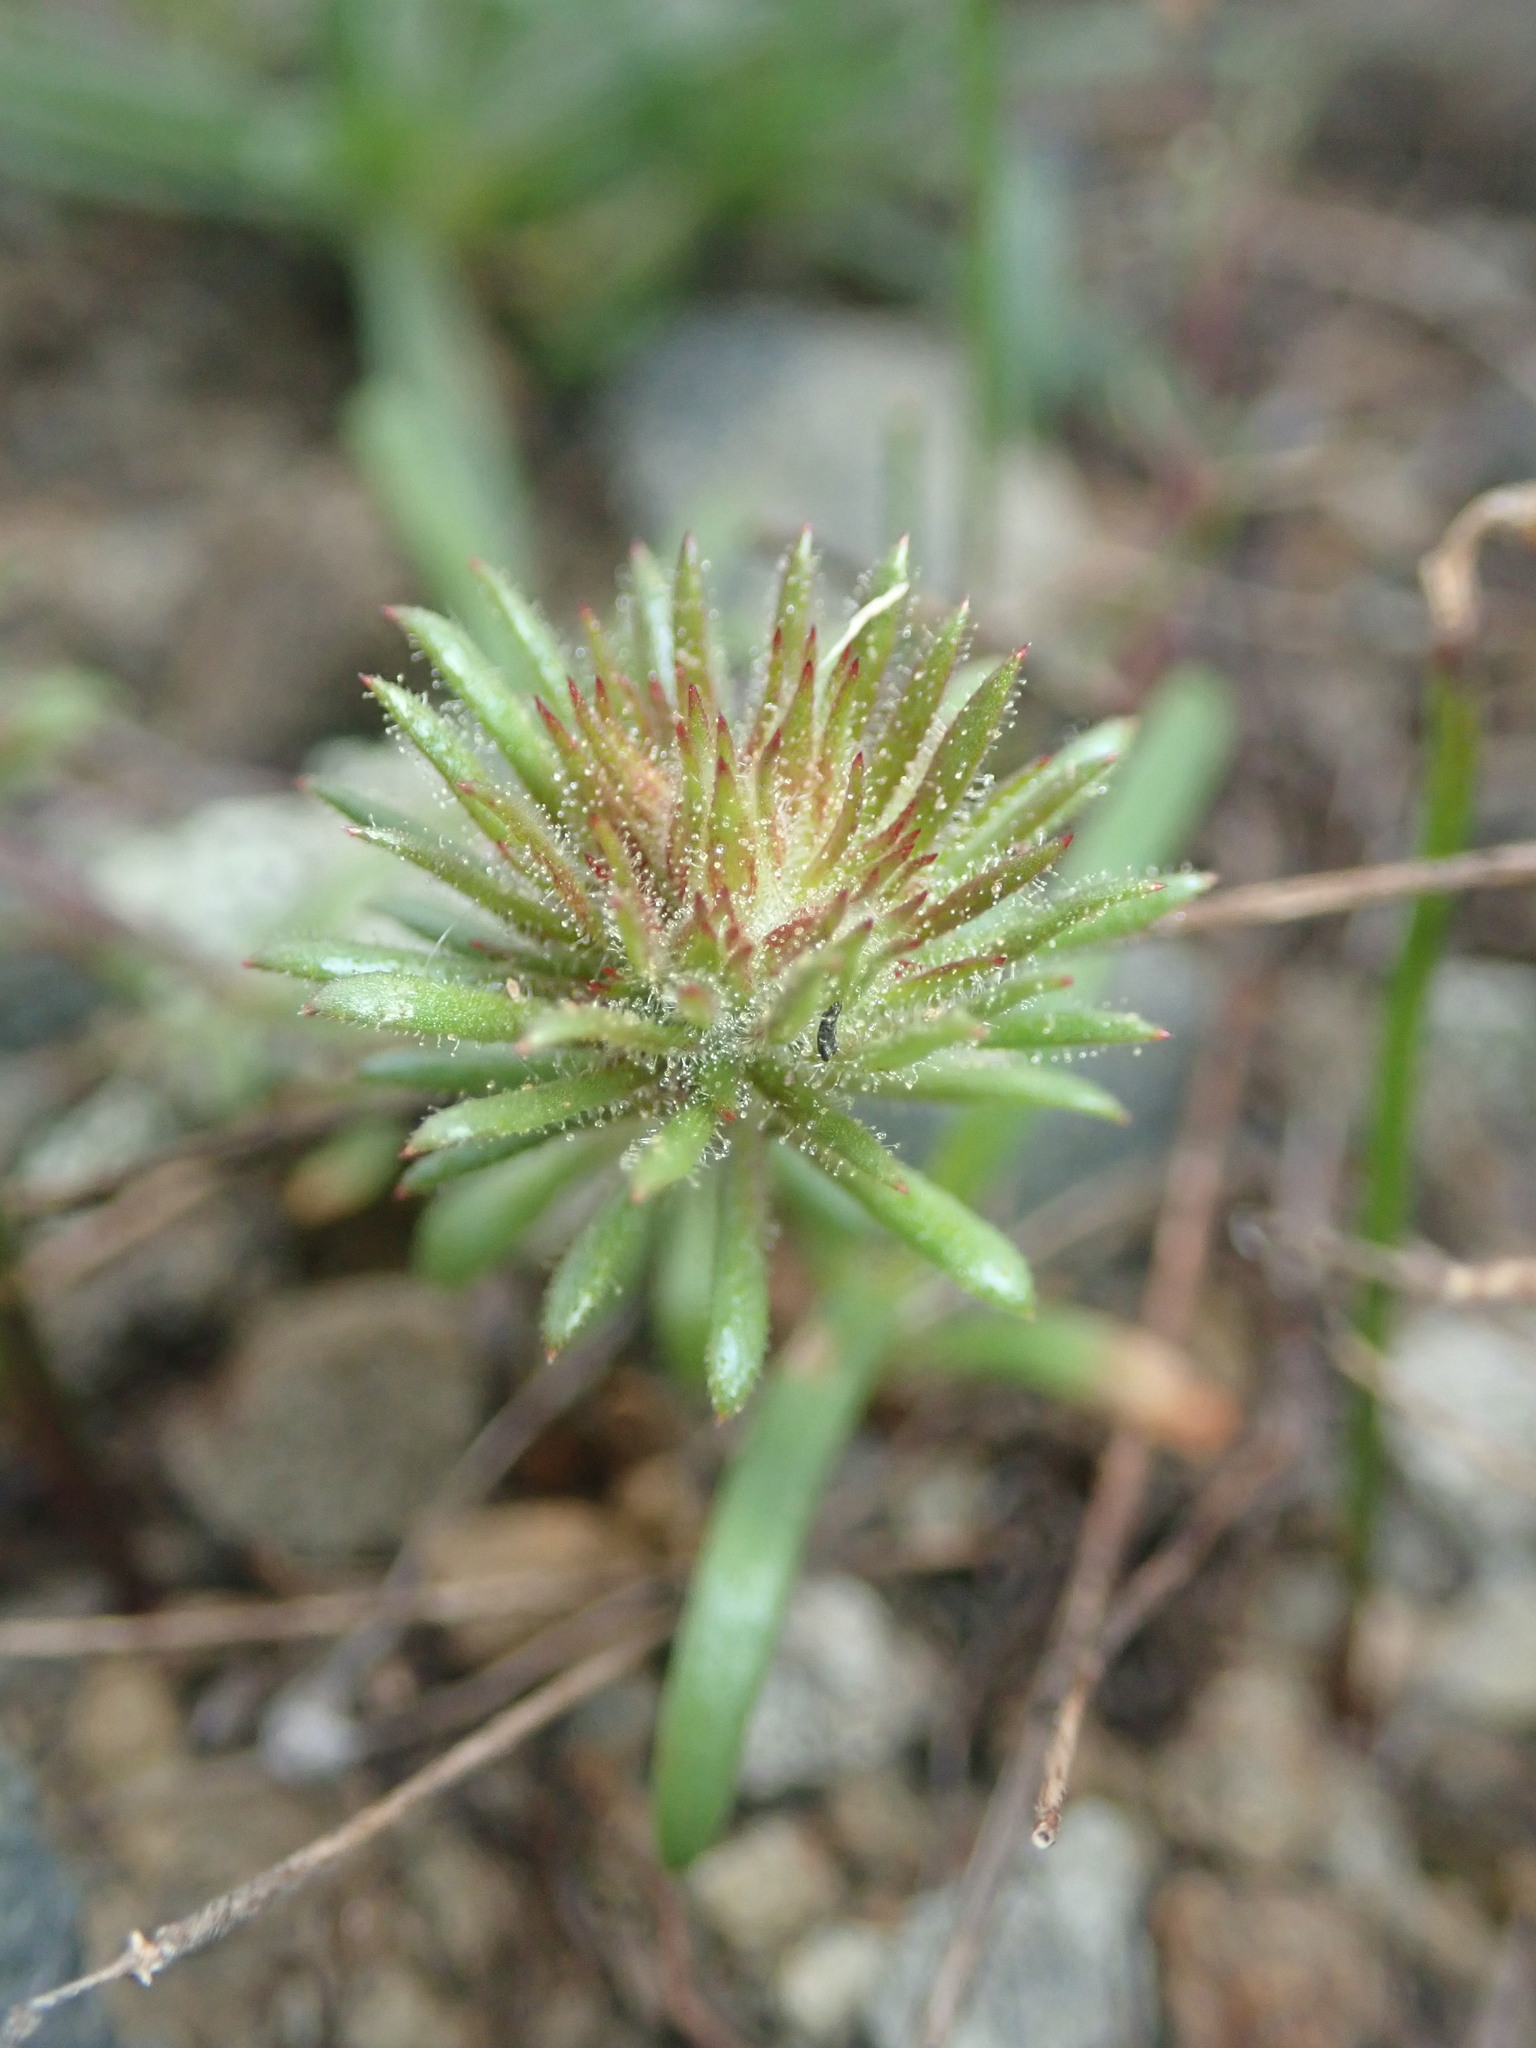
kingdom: Plantae
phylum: Tracheophyta
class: Magnoliopsida
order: Ericales
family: Polemoniaceae
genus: Leptosiphon
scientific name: Leptosiphon parviflorus
